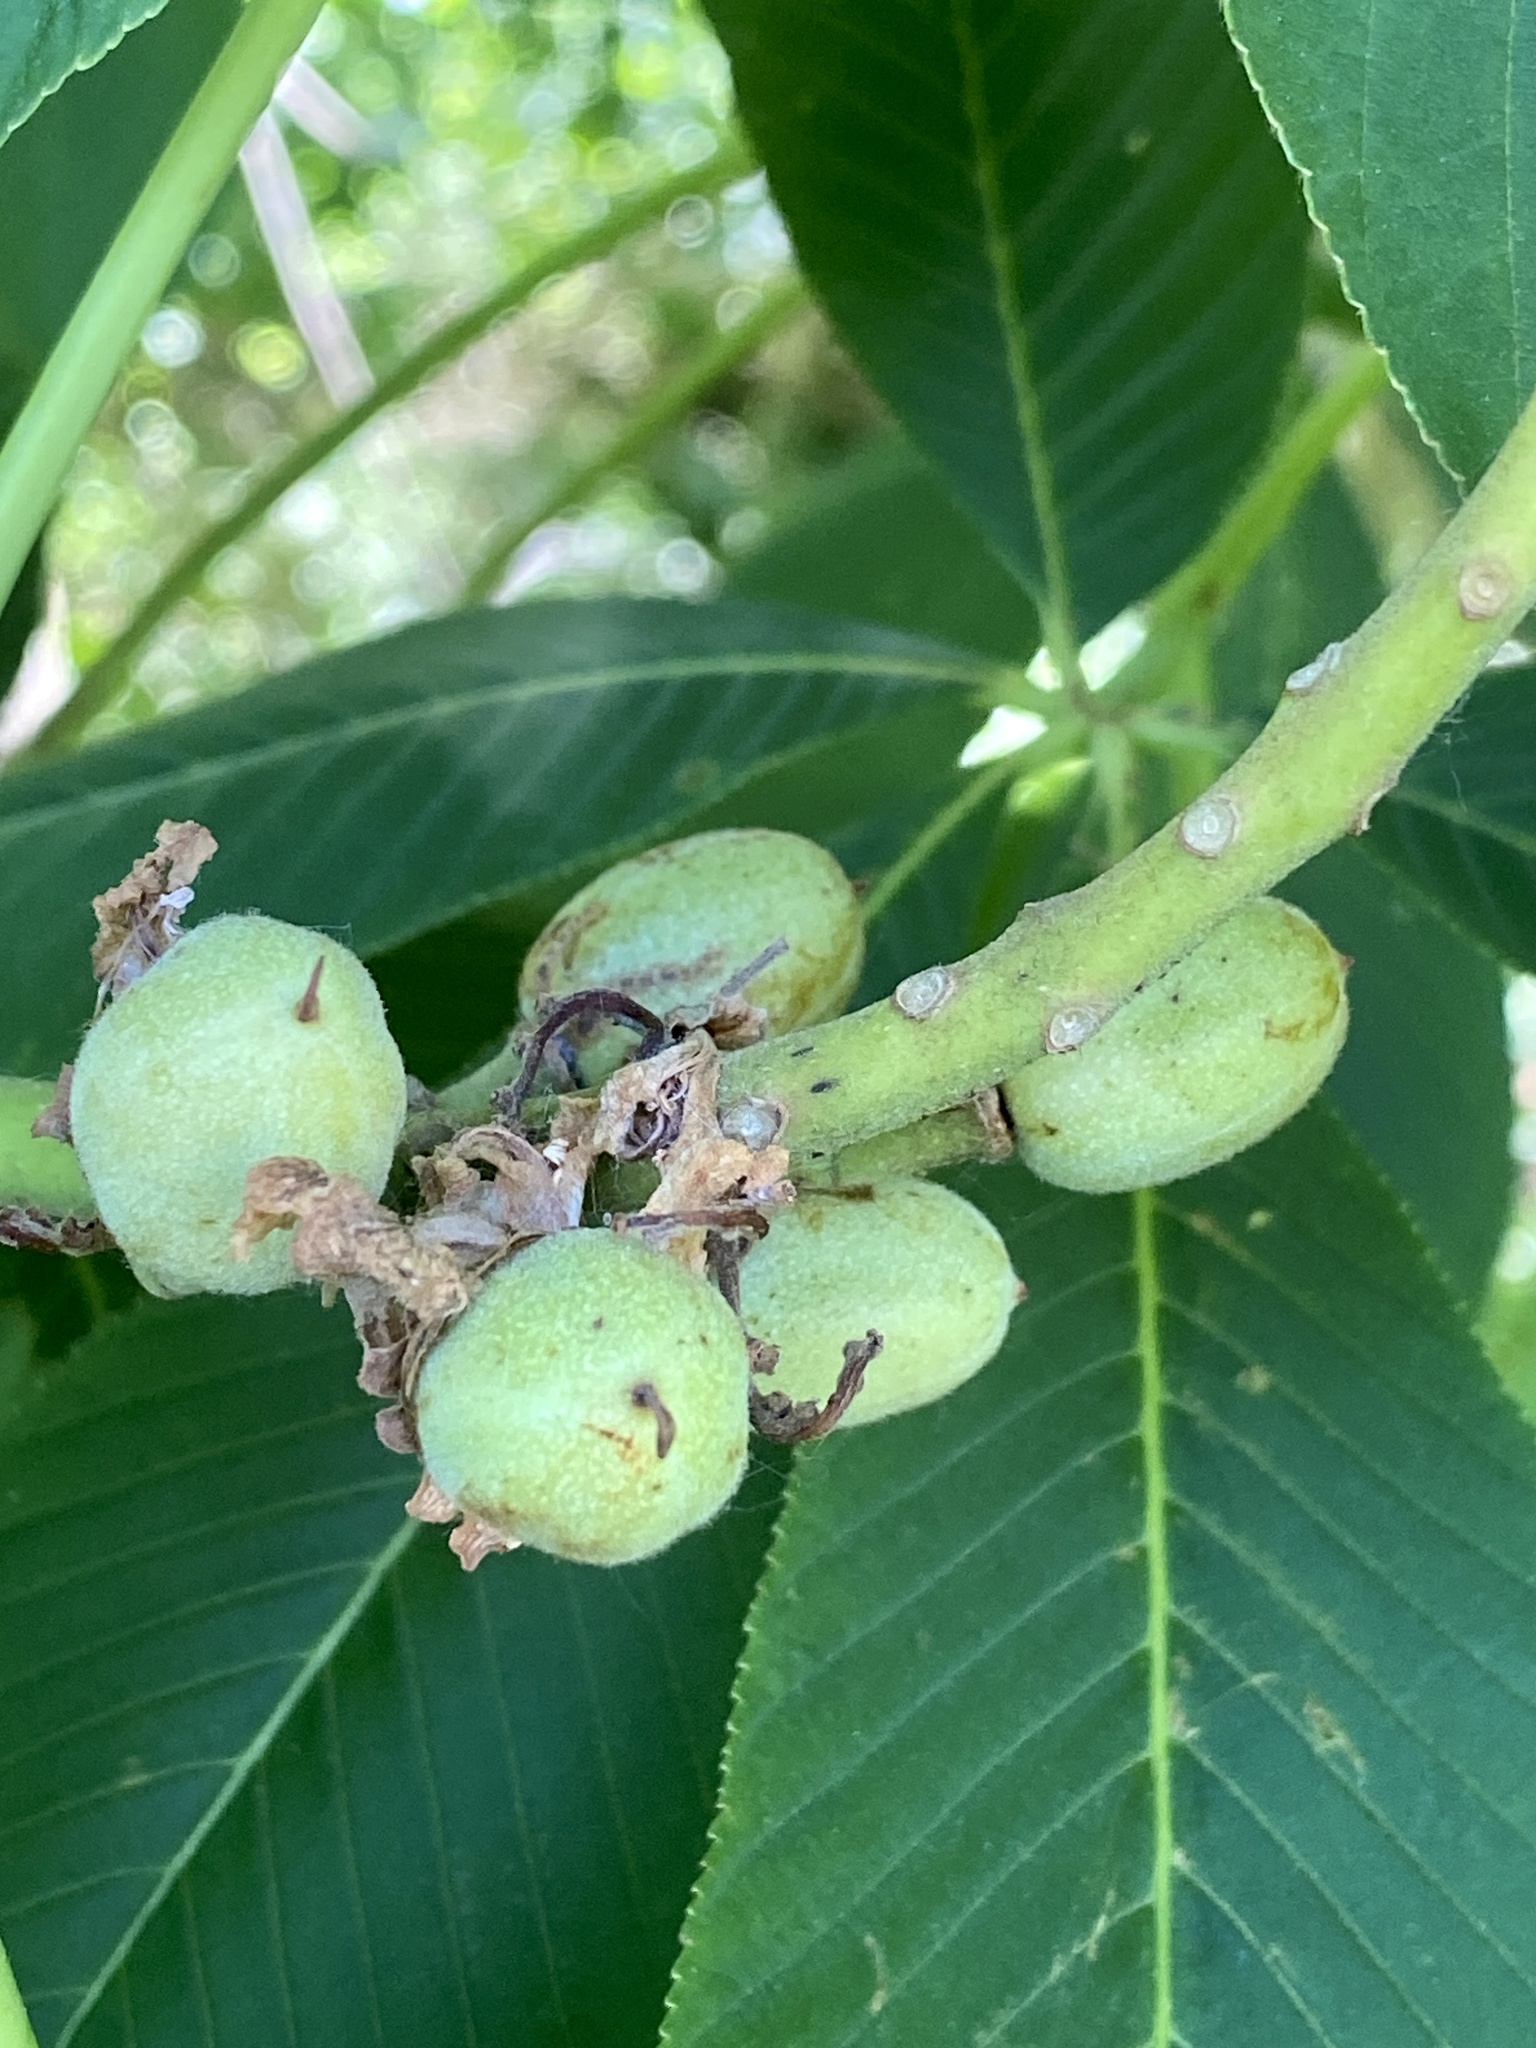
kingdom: Plantae
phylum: Tracheophyta
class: Magnoliopsida
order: Sapindales
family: Sapindaceae
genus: Aesculus
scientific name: Aesculus flava
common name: Yellow buckeye
